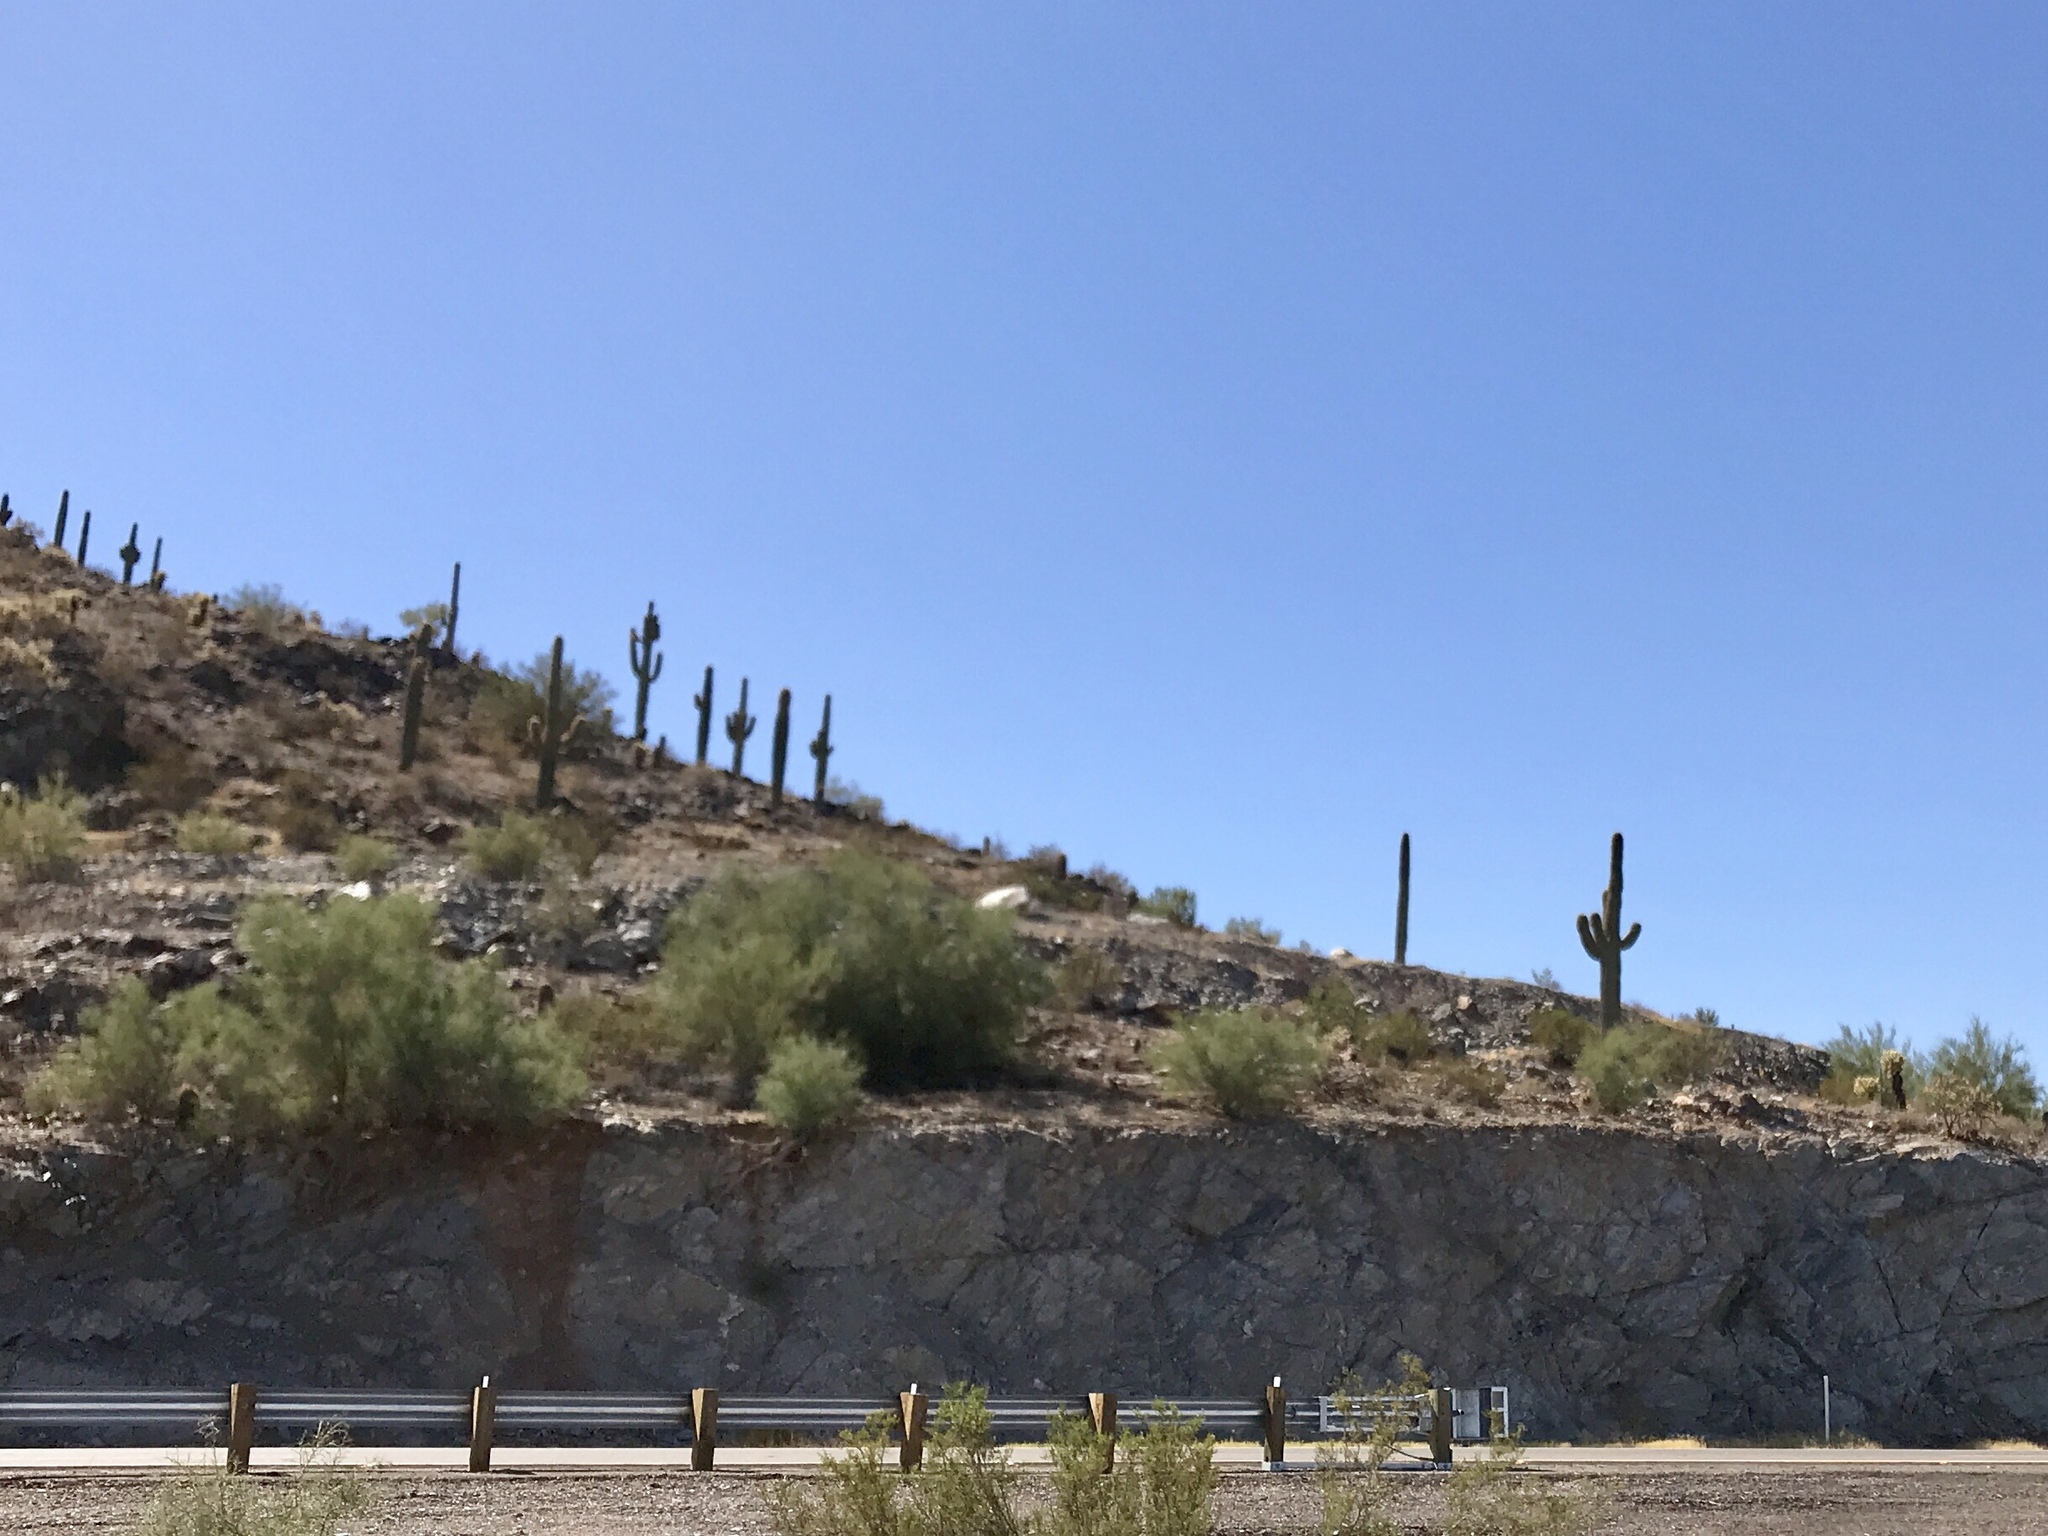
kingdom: Plantae
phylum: Tracheophyta
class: Magnoliopsida
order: Caryophyllales
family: Cactaceae
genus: Carnegiea
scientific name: Carnegiea gigantea
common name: Saguaro
